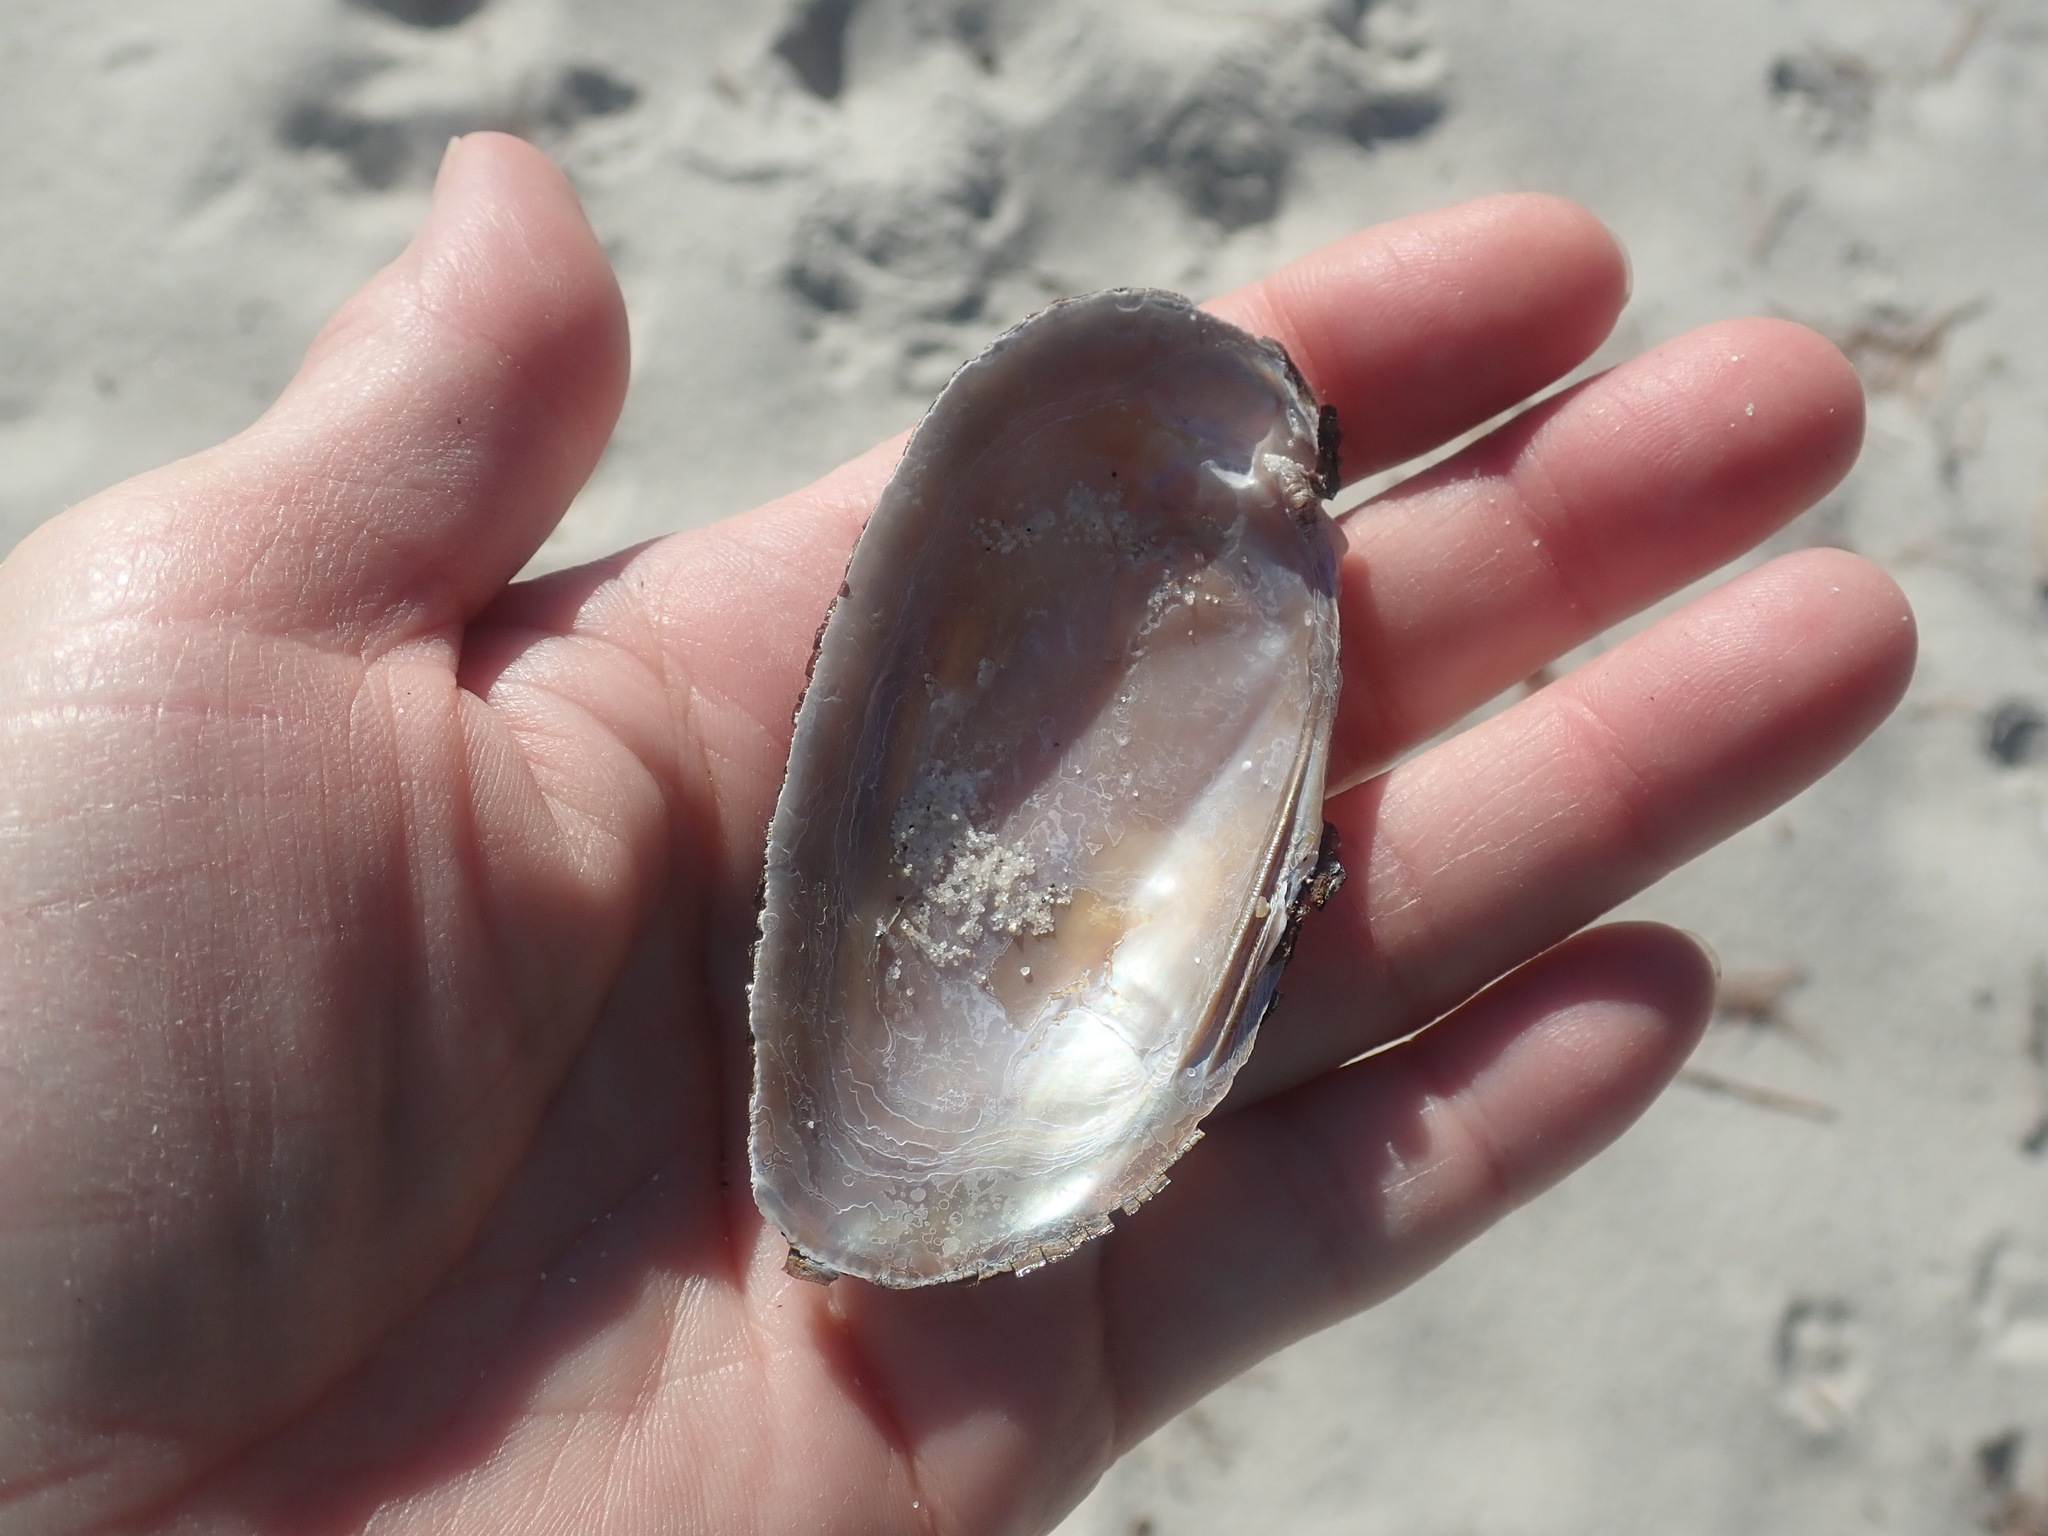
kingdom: Animalia
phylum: Mollusca
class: Bivalvia
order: Unionida
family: Unionidae
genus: Elliptio
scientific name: Elliptio complanata
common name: Eastern elliptio
